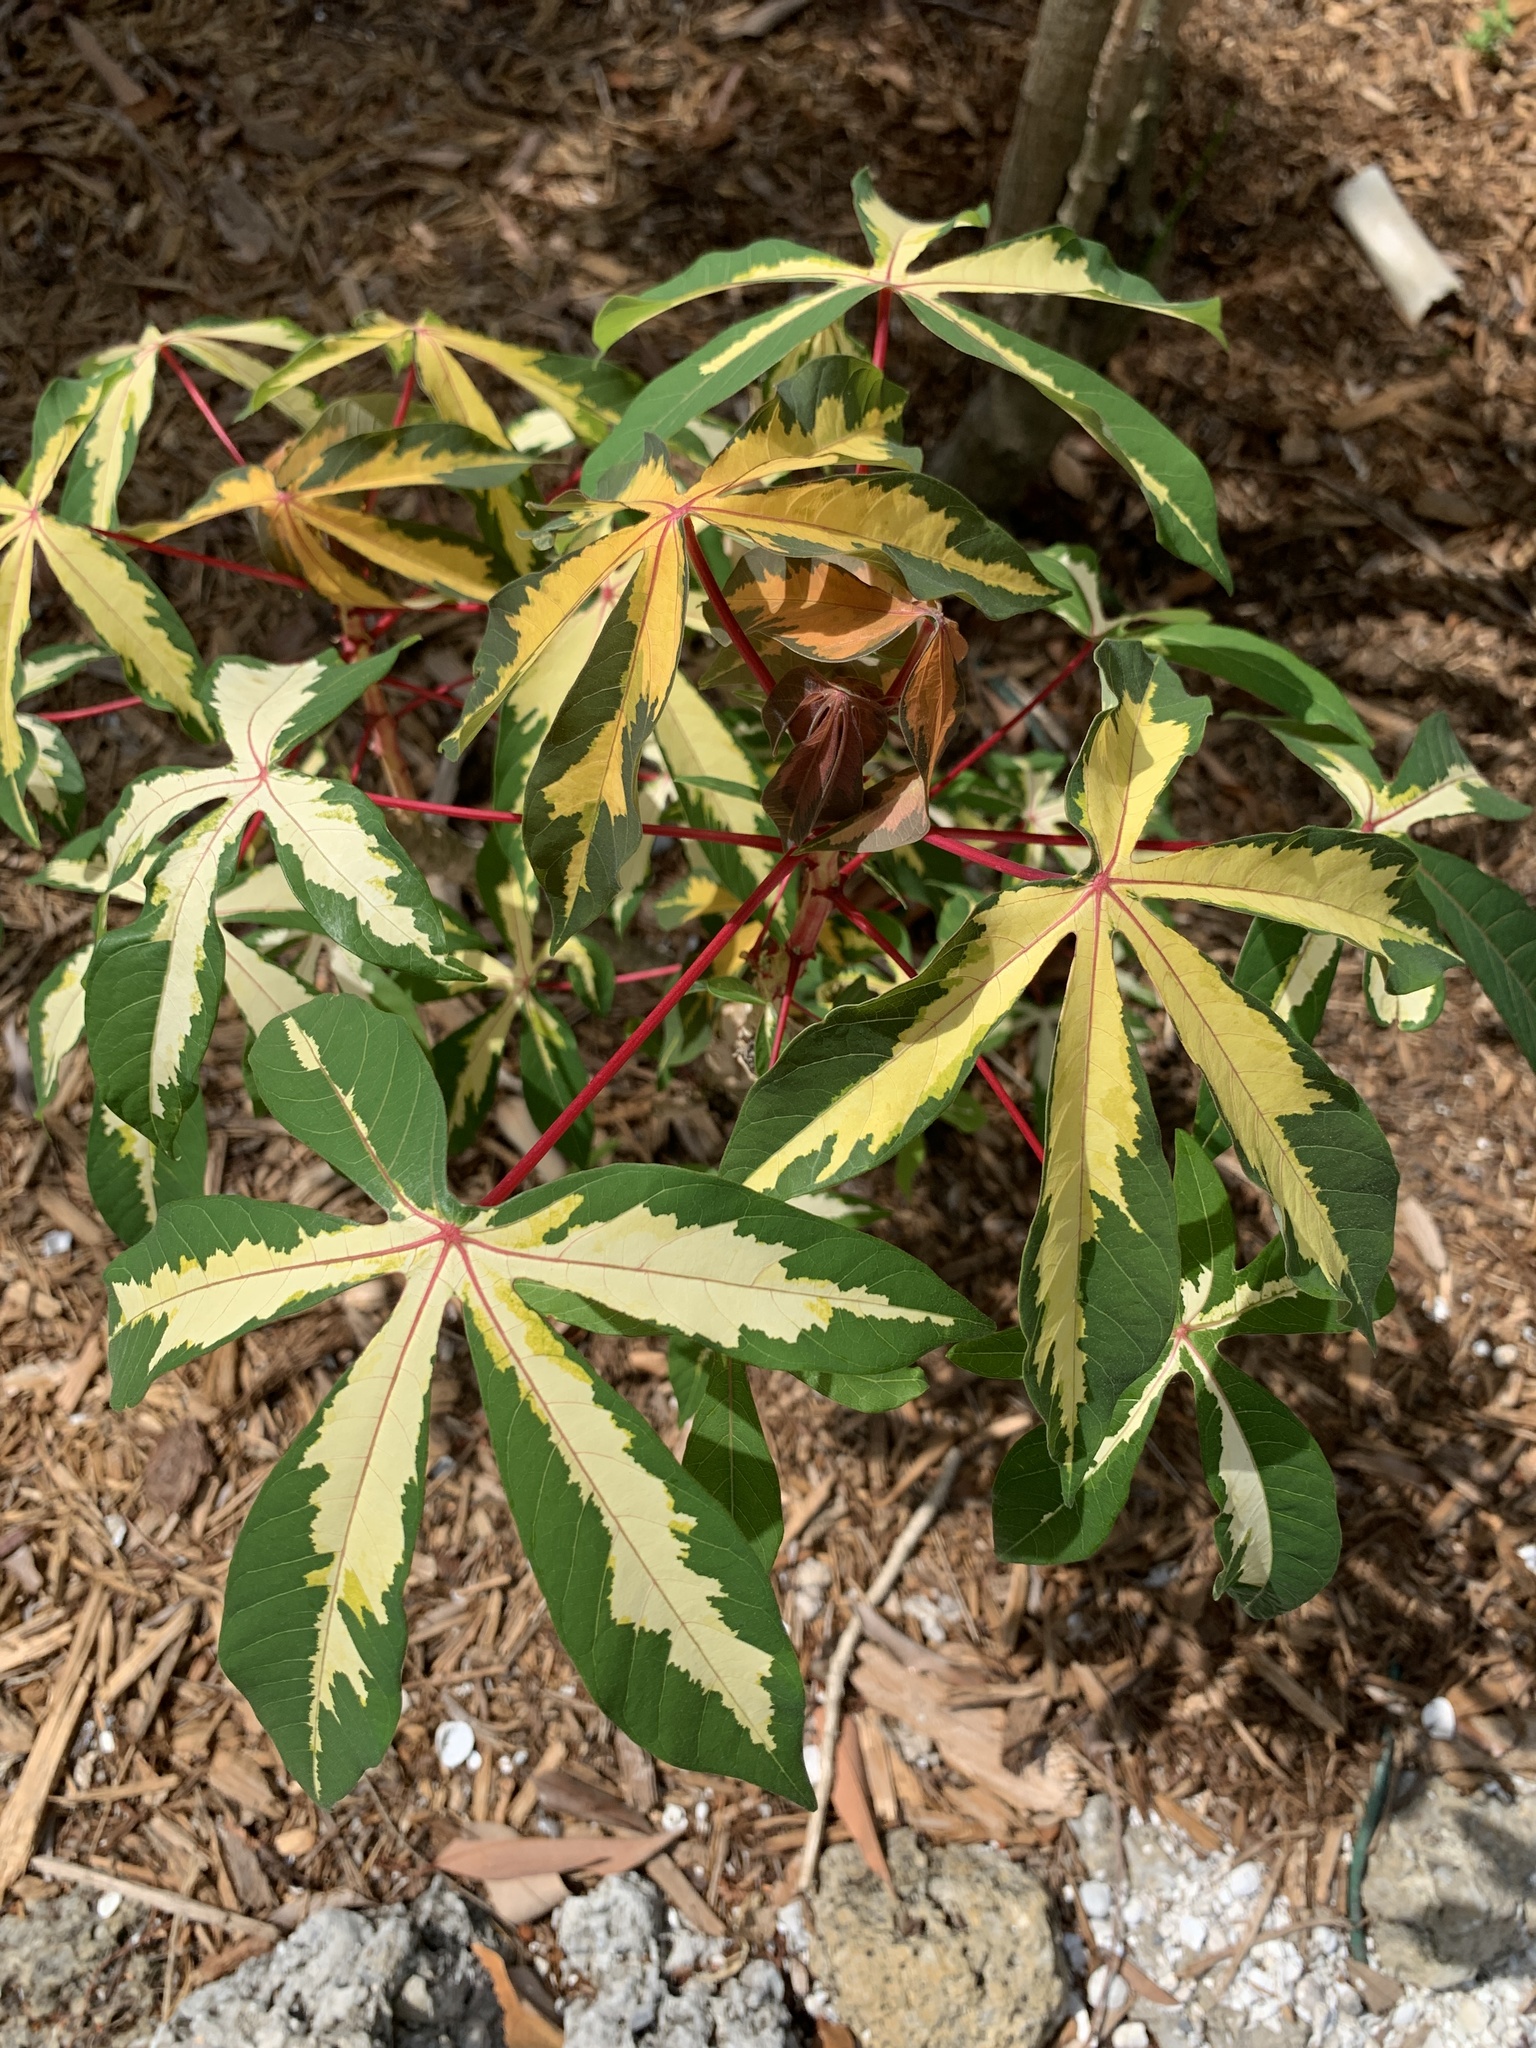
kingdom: Plantae
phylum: Tracheophyta
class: Magnoliopsida
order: Malpighiales
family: Euphorbiaceae
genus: Manihot
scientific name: Manihot esculenta
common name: Cassava
